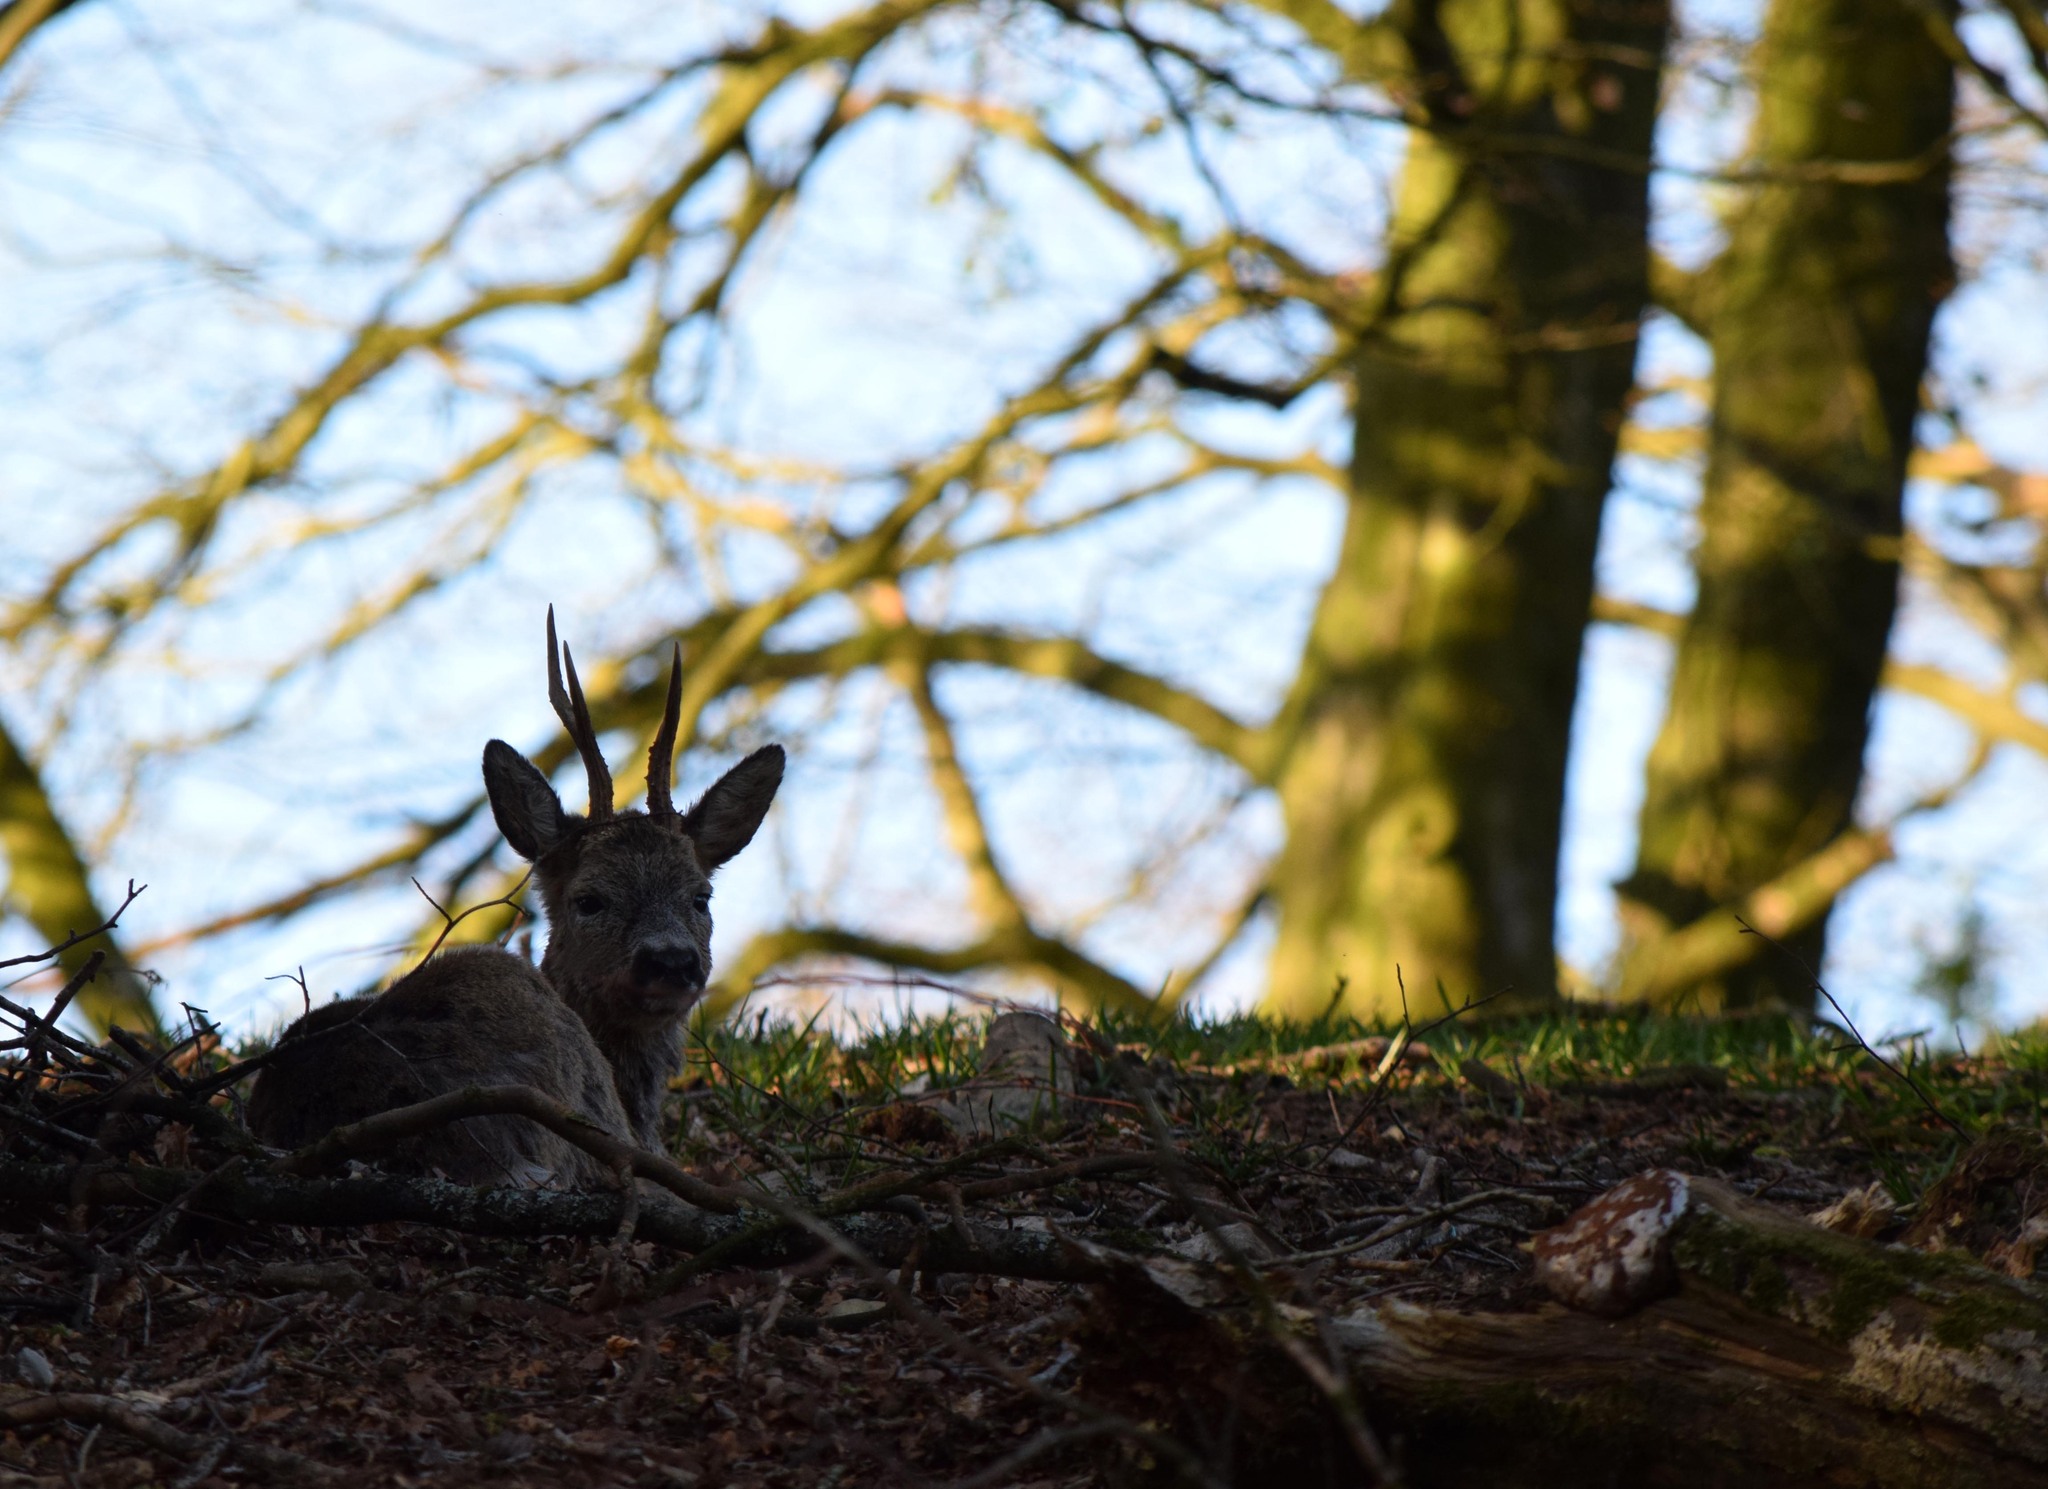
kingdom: Animalia
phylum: Chordata
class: Mammalia
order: Artiodactyla
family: Cervidae
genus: Capreolus
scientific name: Capreolus capreolus
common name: Western roe deer
